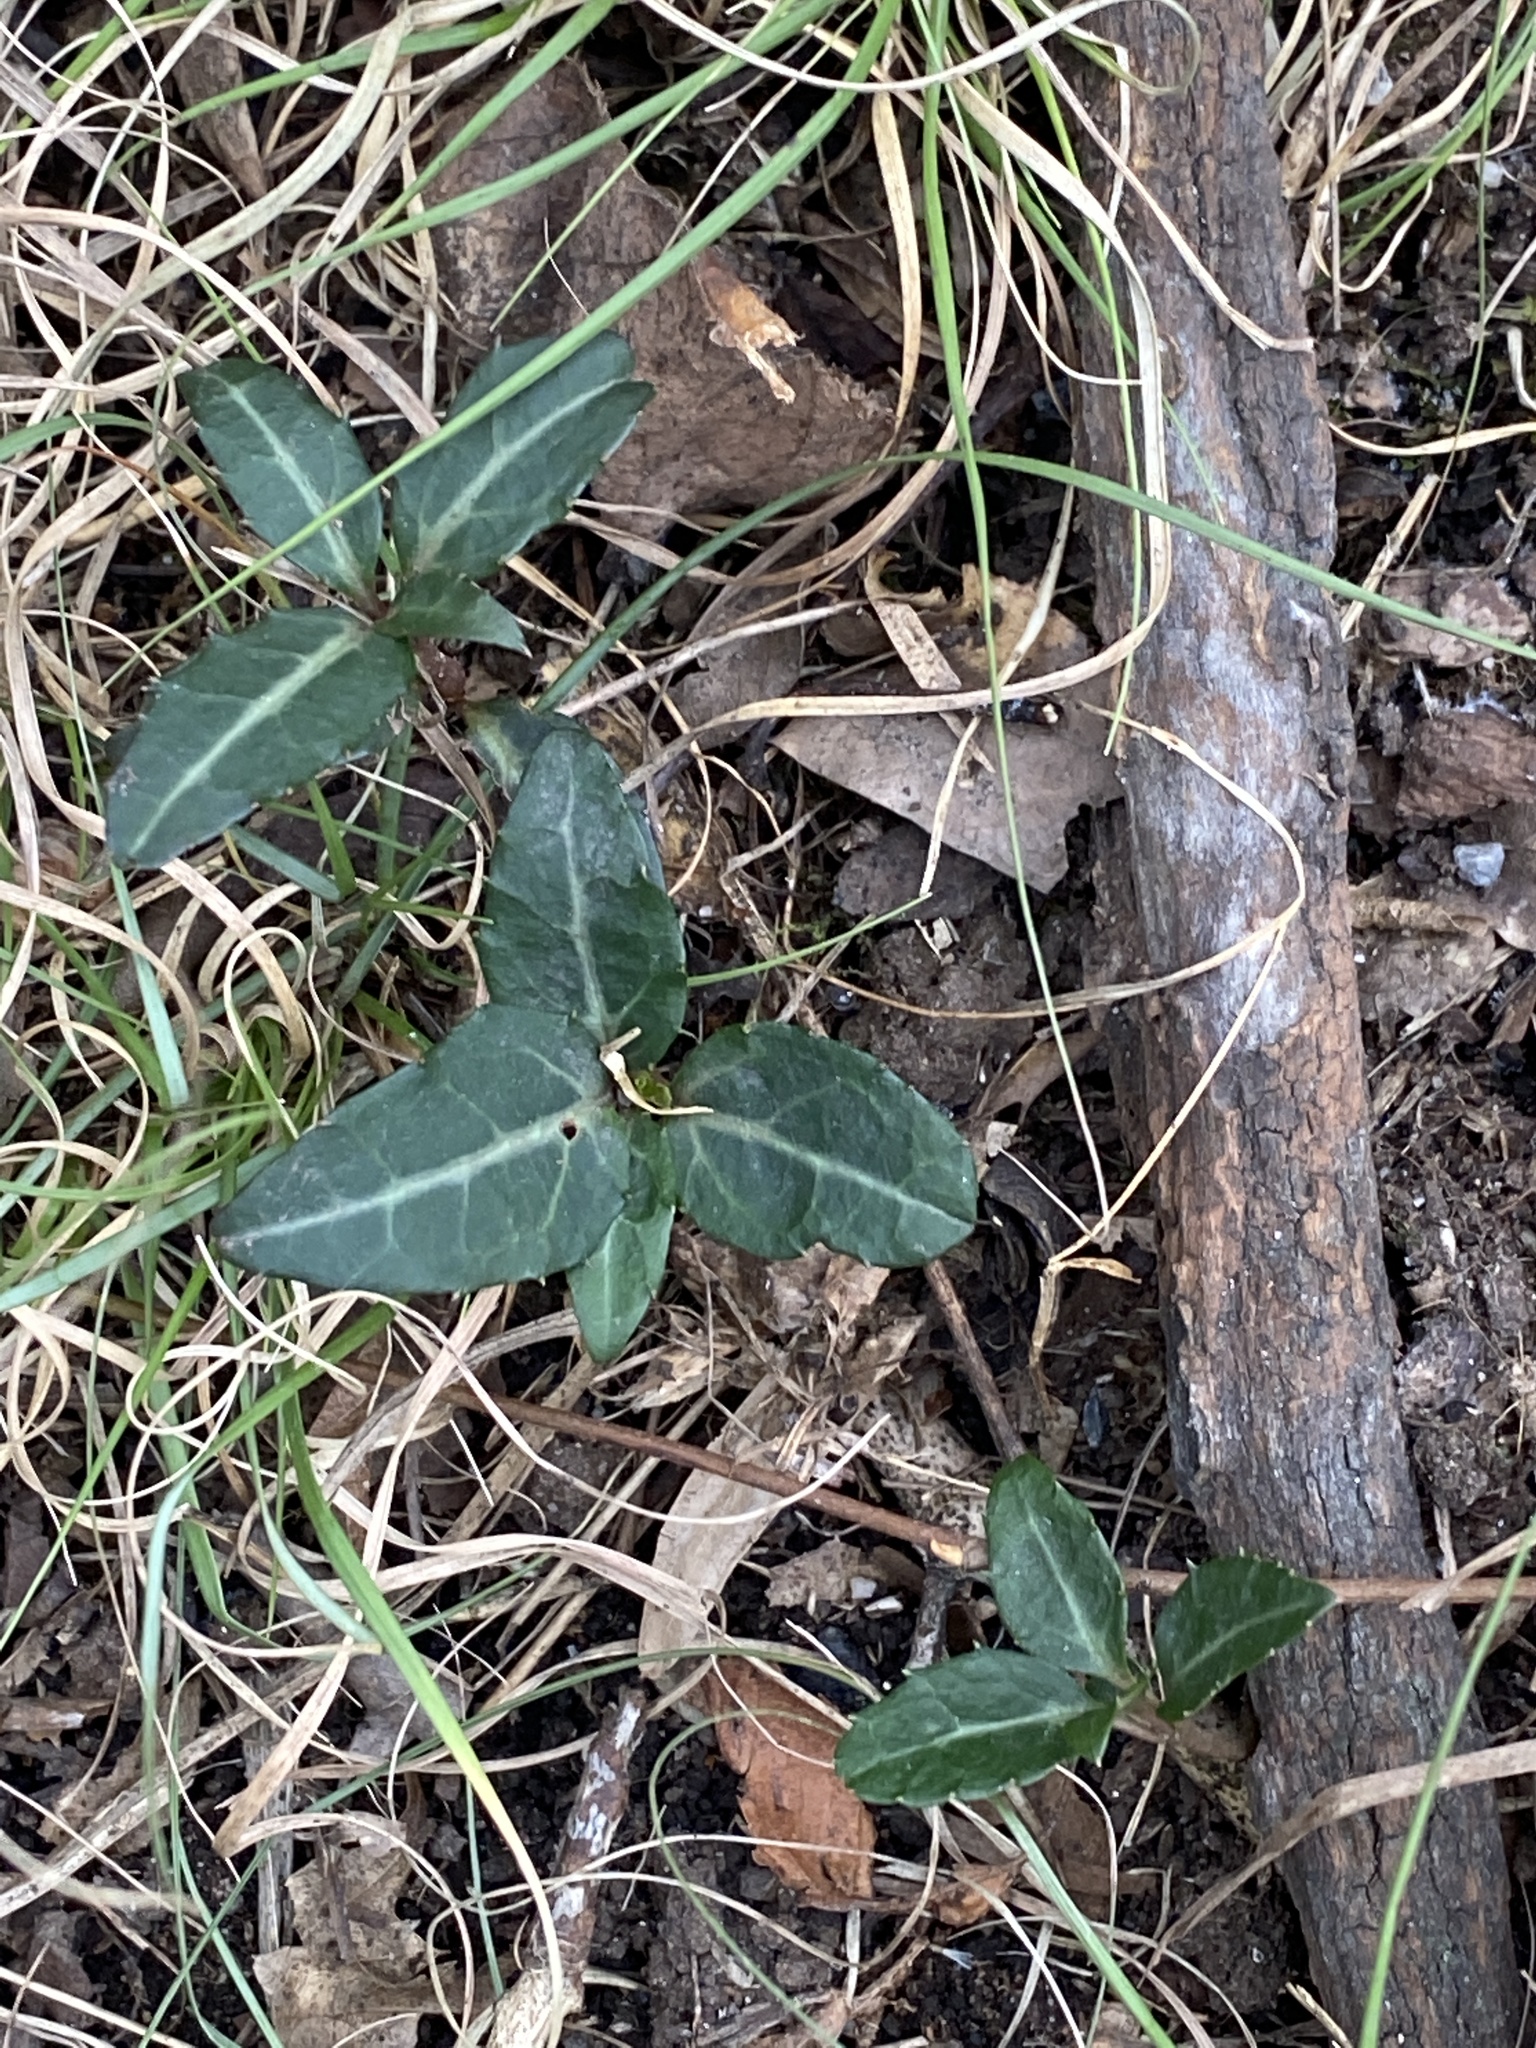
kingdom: Plantae
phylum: Tracheophyta
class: Magnoliopsida
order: Ericales
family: Ericaceae
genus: Chimaphila
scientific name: Chimaphila maculata
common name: Spotted pipsissewa
